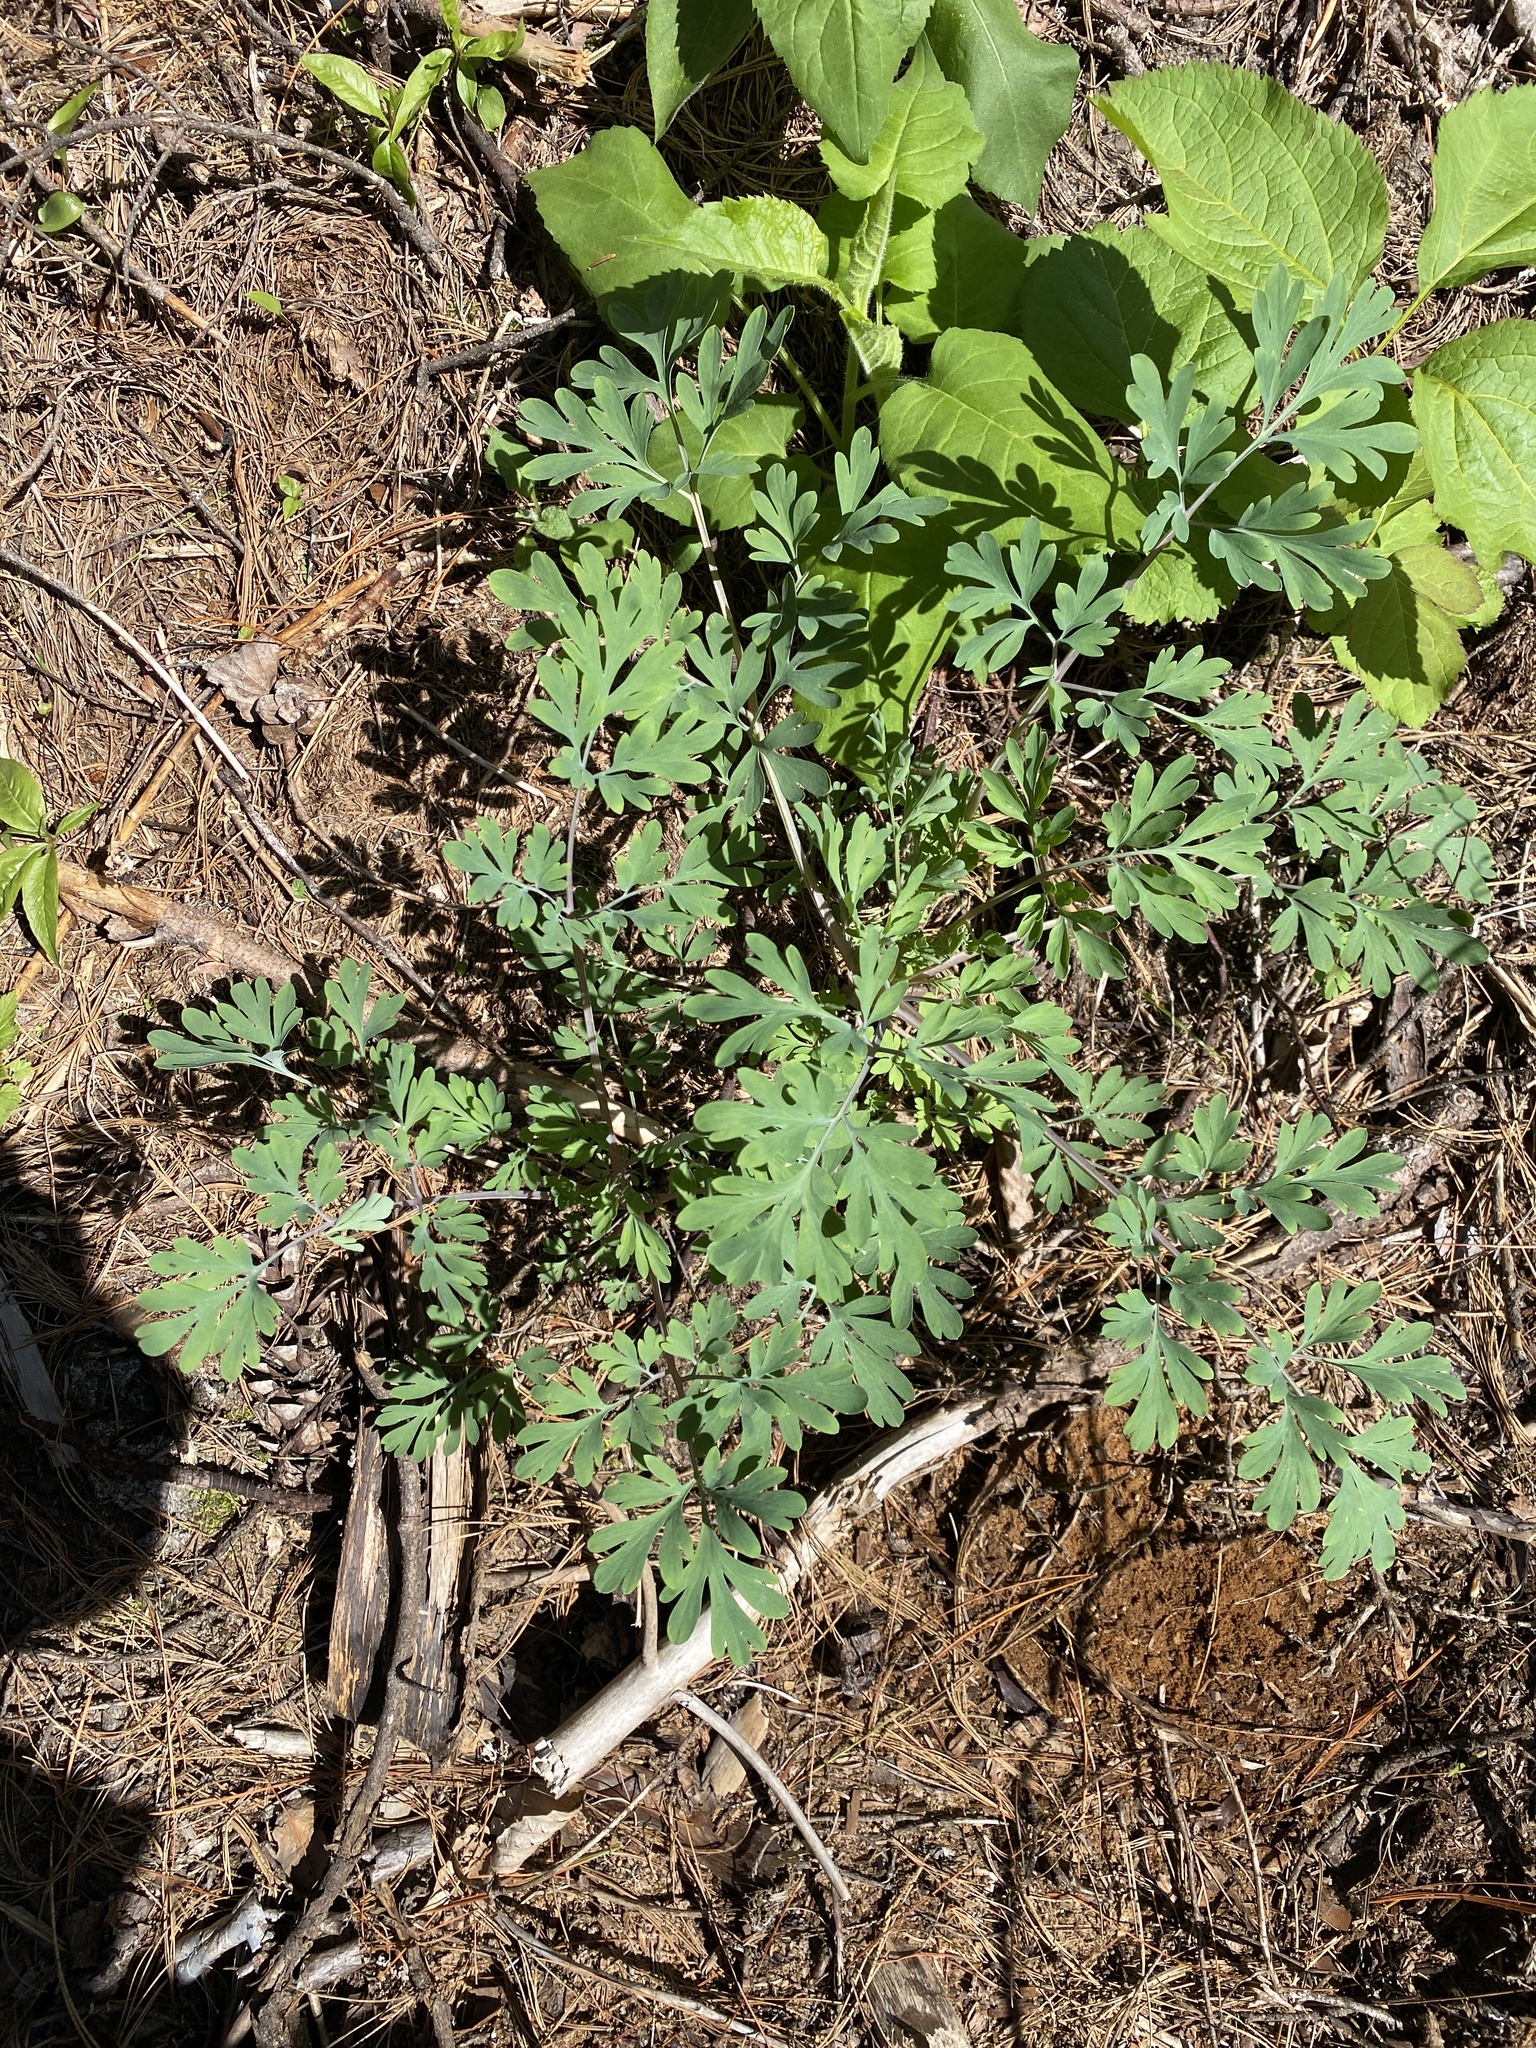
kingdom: Plantae
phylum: Tracheophyta
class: Magnoliopsida
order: Ranunculales
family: Papaveraceae
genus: Capnoides
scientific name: Capnoides sempervirens
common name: Rock harlequin
